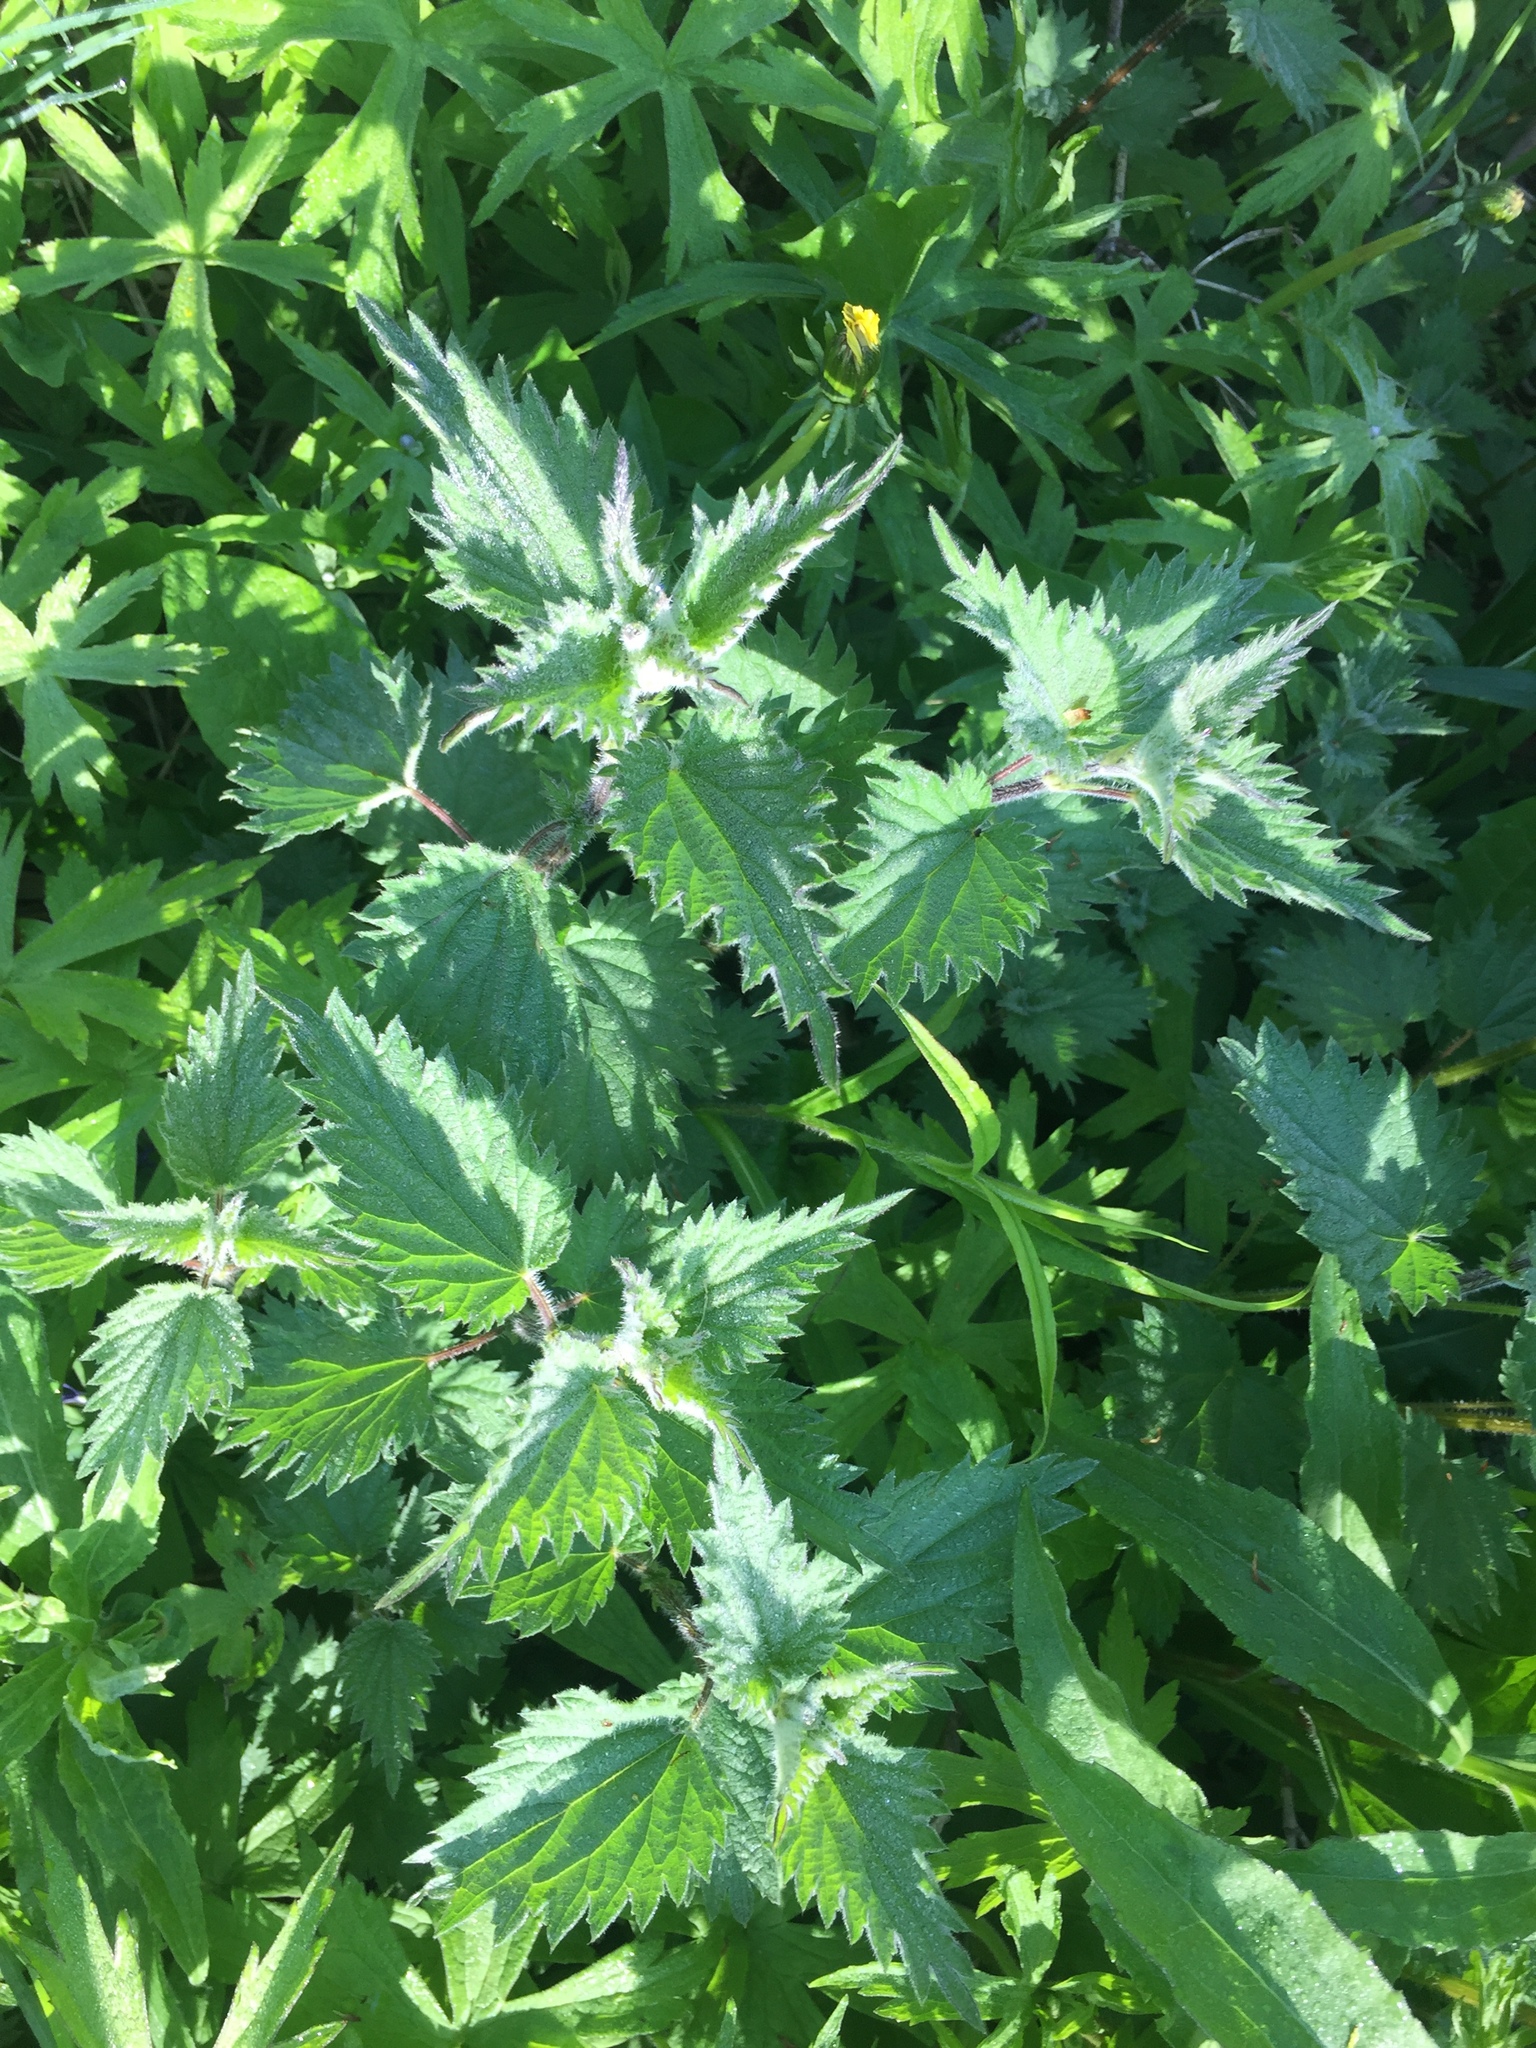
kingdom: Plantae
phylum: Tracheophyta
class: Magnoliopsida
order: Rosales
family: Urticaceae
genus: Urtica
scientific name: Urtica dioica
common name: Common nettle
